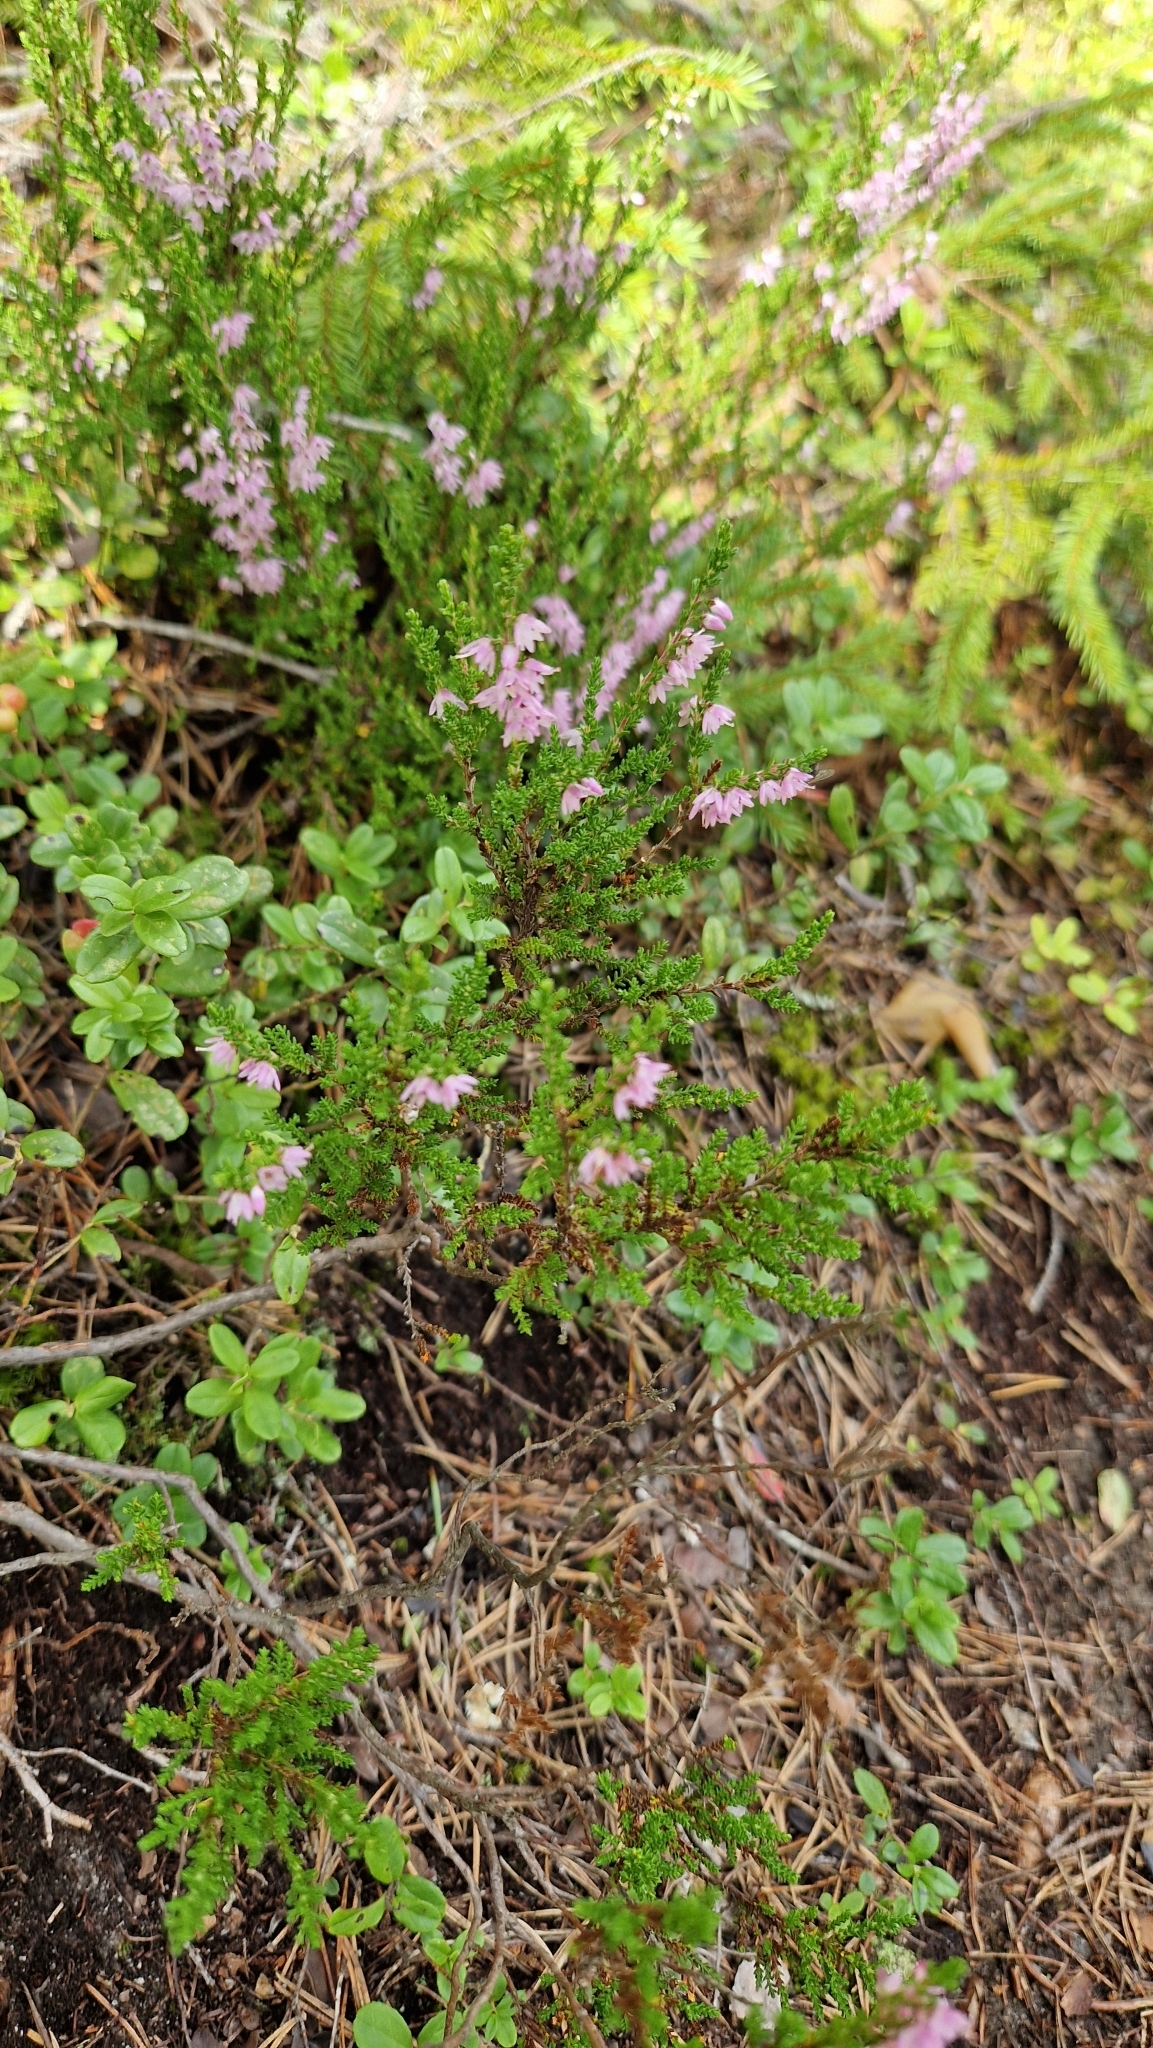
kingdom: Plantae
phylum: Tracheophyta
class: Magnoliopsida
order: Ericales
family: Ericaceae
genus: Calluna
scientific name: Calluna vulgaris
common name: Heather
